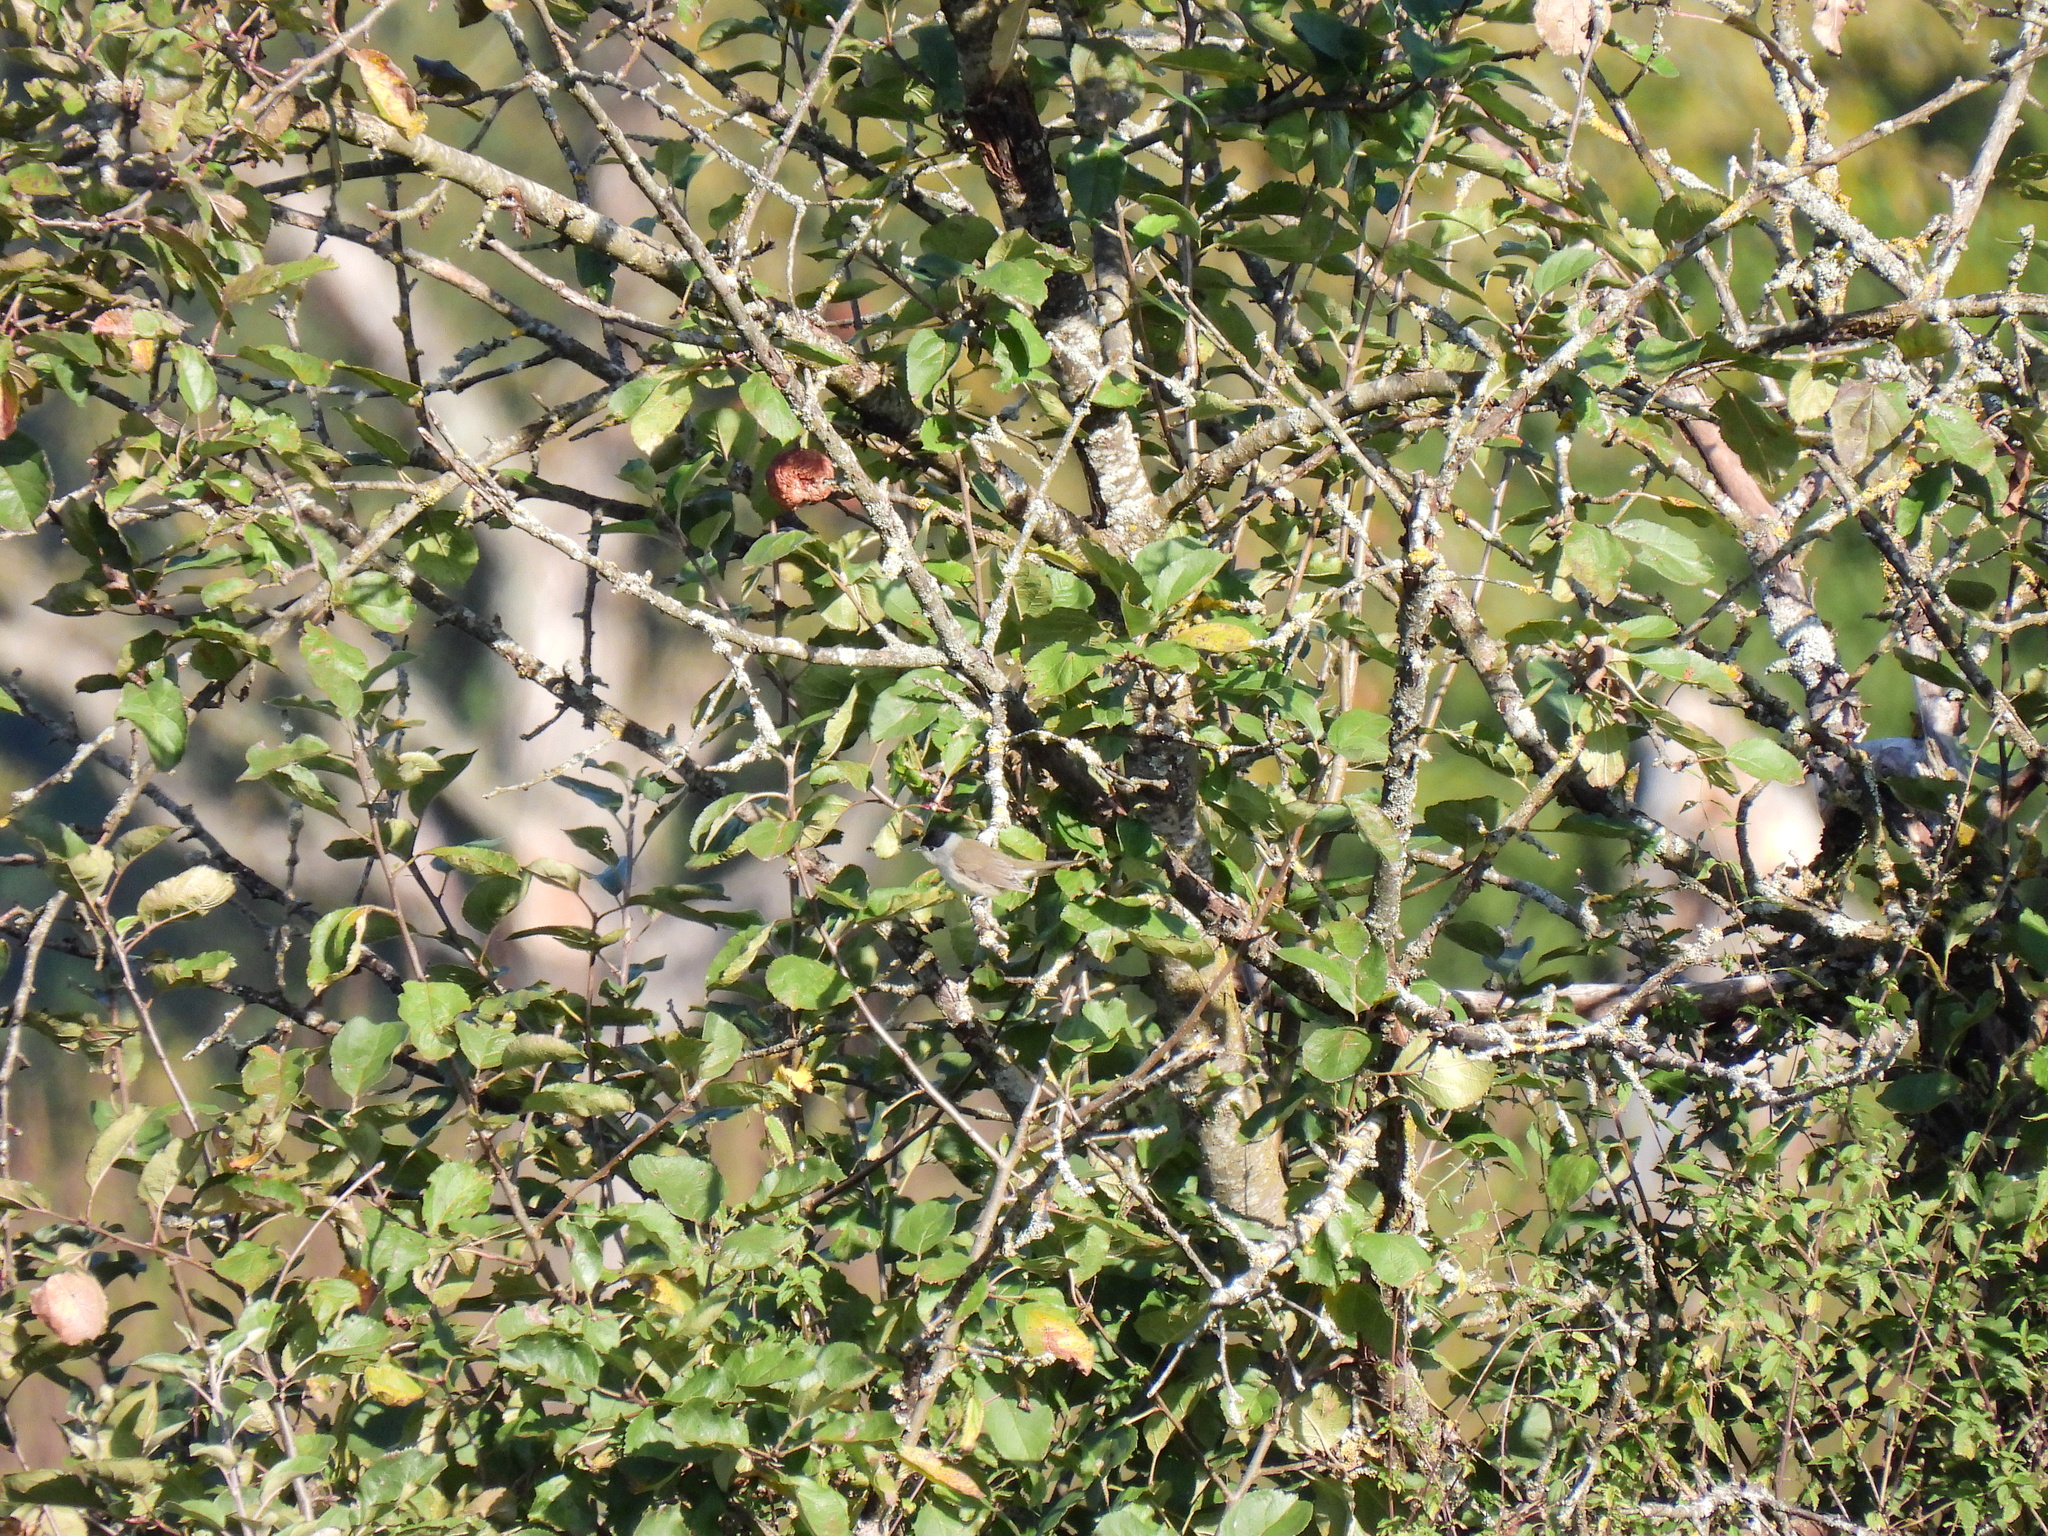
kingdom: Animalia
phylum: Chordata
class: Aves
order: Passeriformes
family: Sylviidae
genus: Sylvia
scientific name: Sylvia atricapilla
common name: Eurasian blackcap
